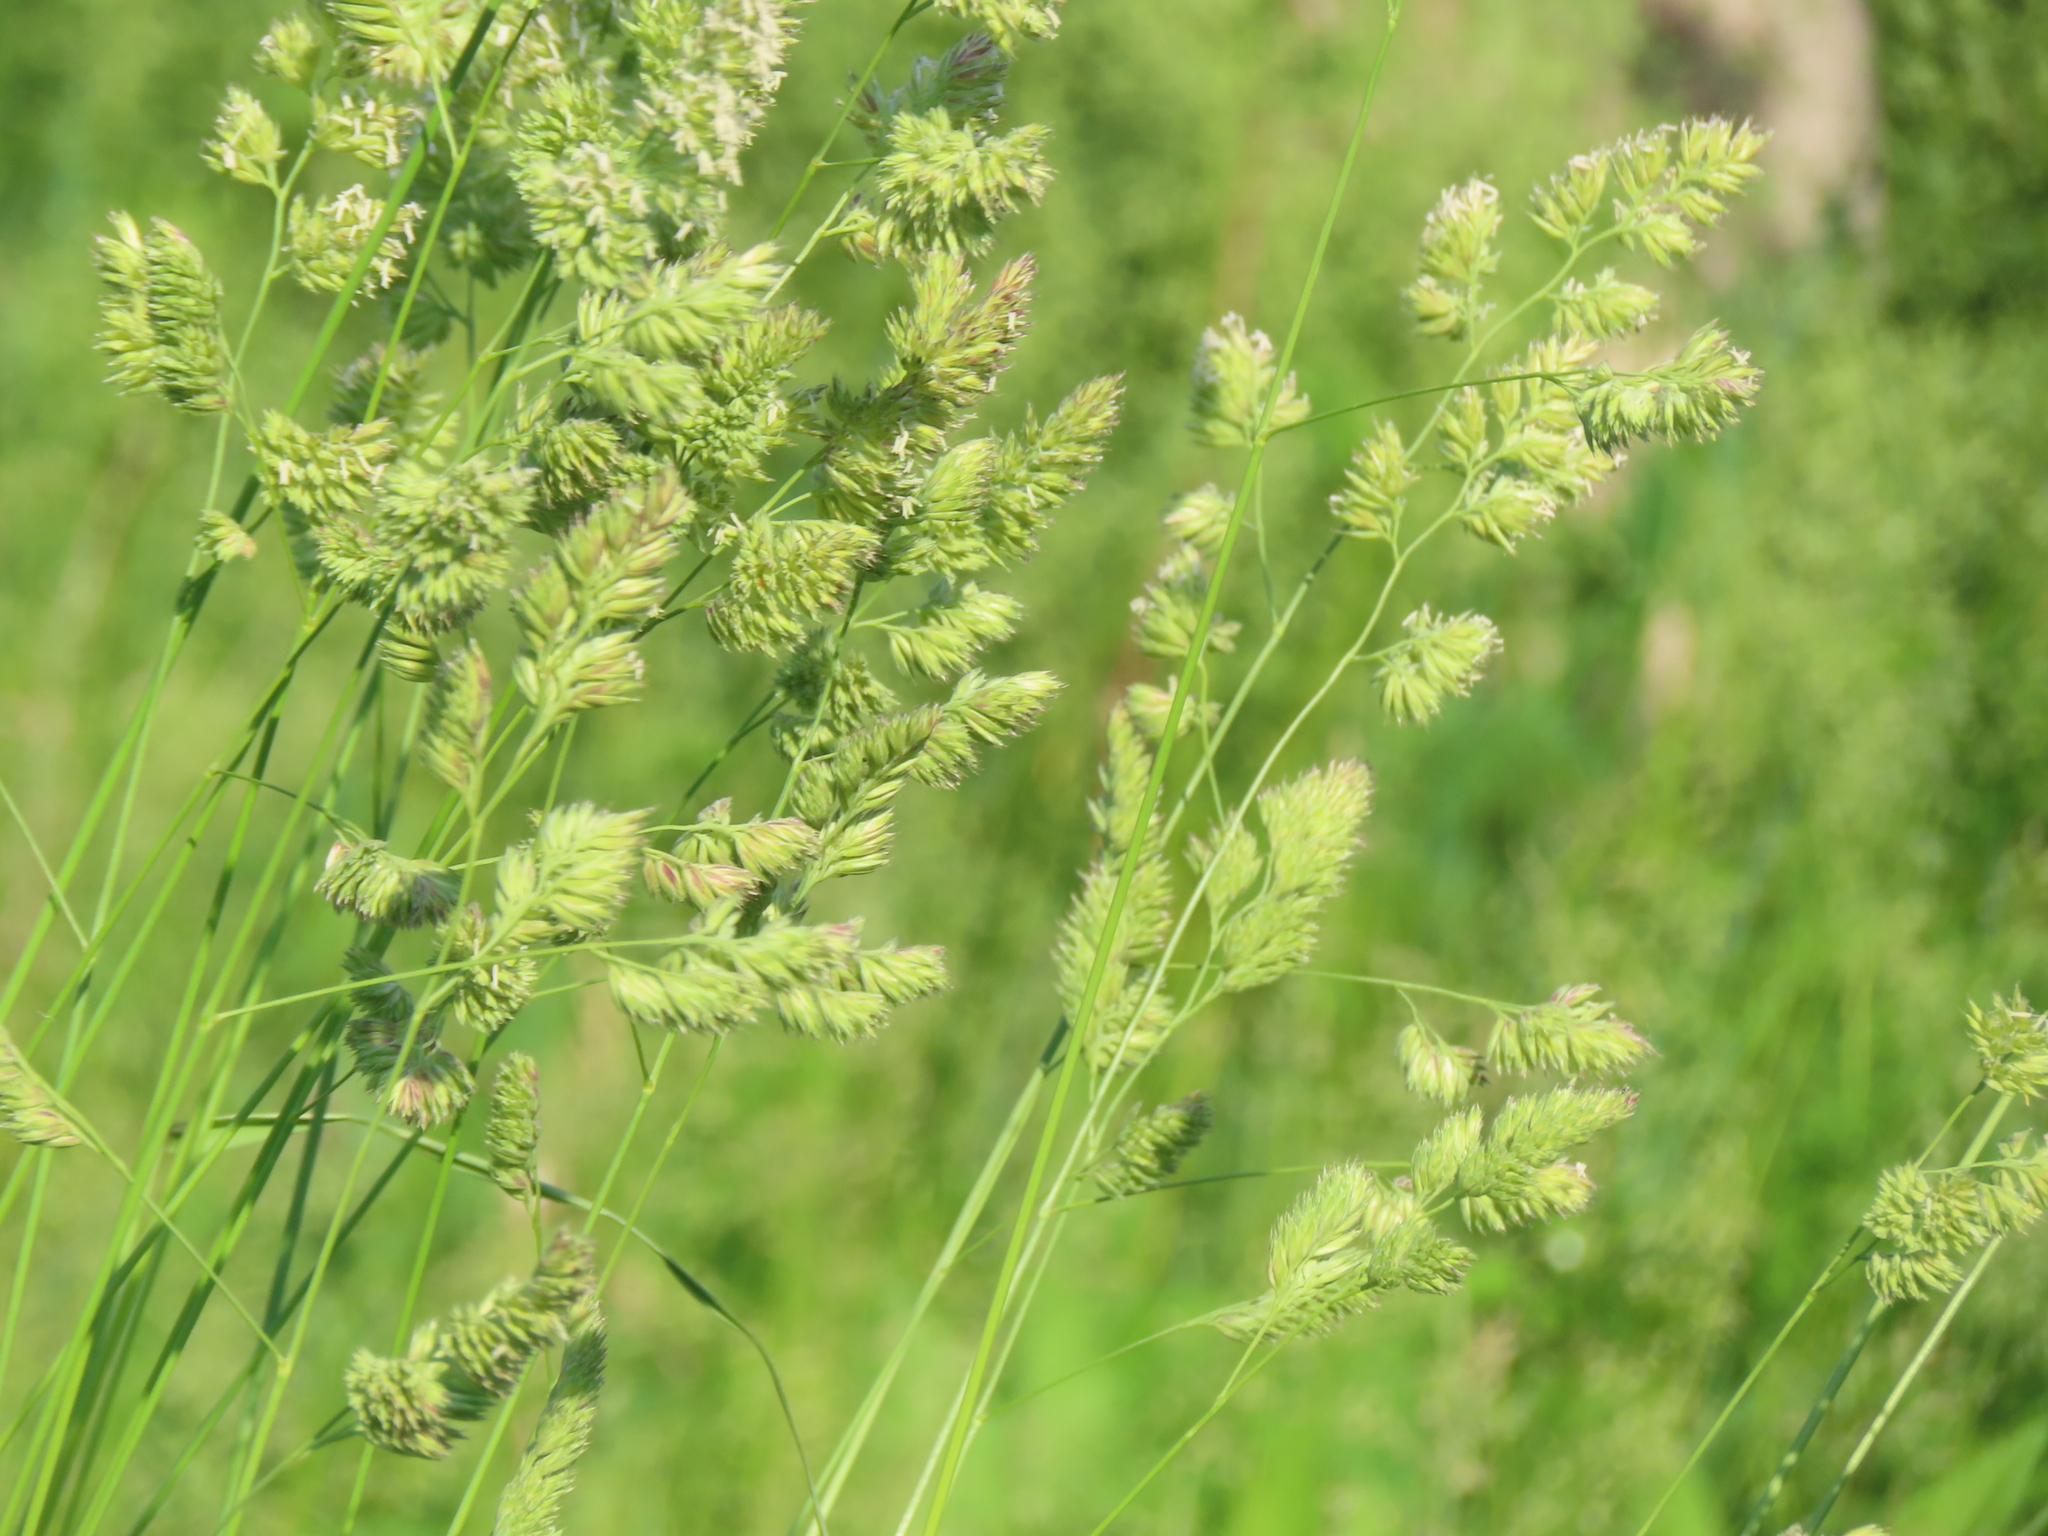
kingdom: Plantae
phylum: Tracheophyta
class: Liliopsida
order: Poales
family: Poaceae
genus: Dactylis
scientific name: Dactylis glomerata
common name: Orchardgrass
